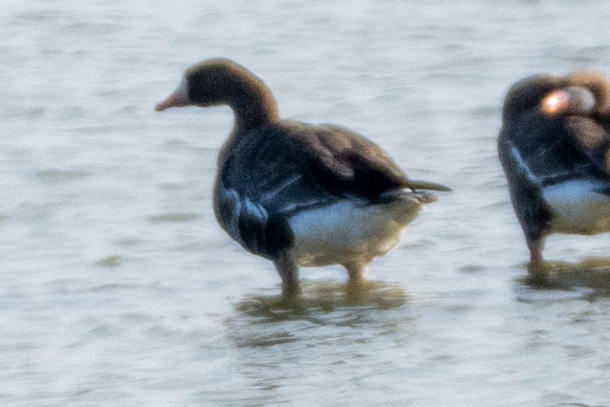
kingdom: Animalia
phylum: Chordata
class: Aves
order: Anseriformes
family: Anatidae
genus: Anser
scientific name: Anser albifrons
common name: Greater white-fronted goose
